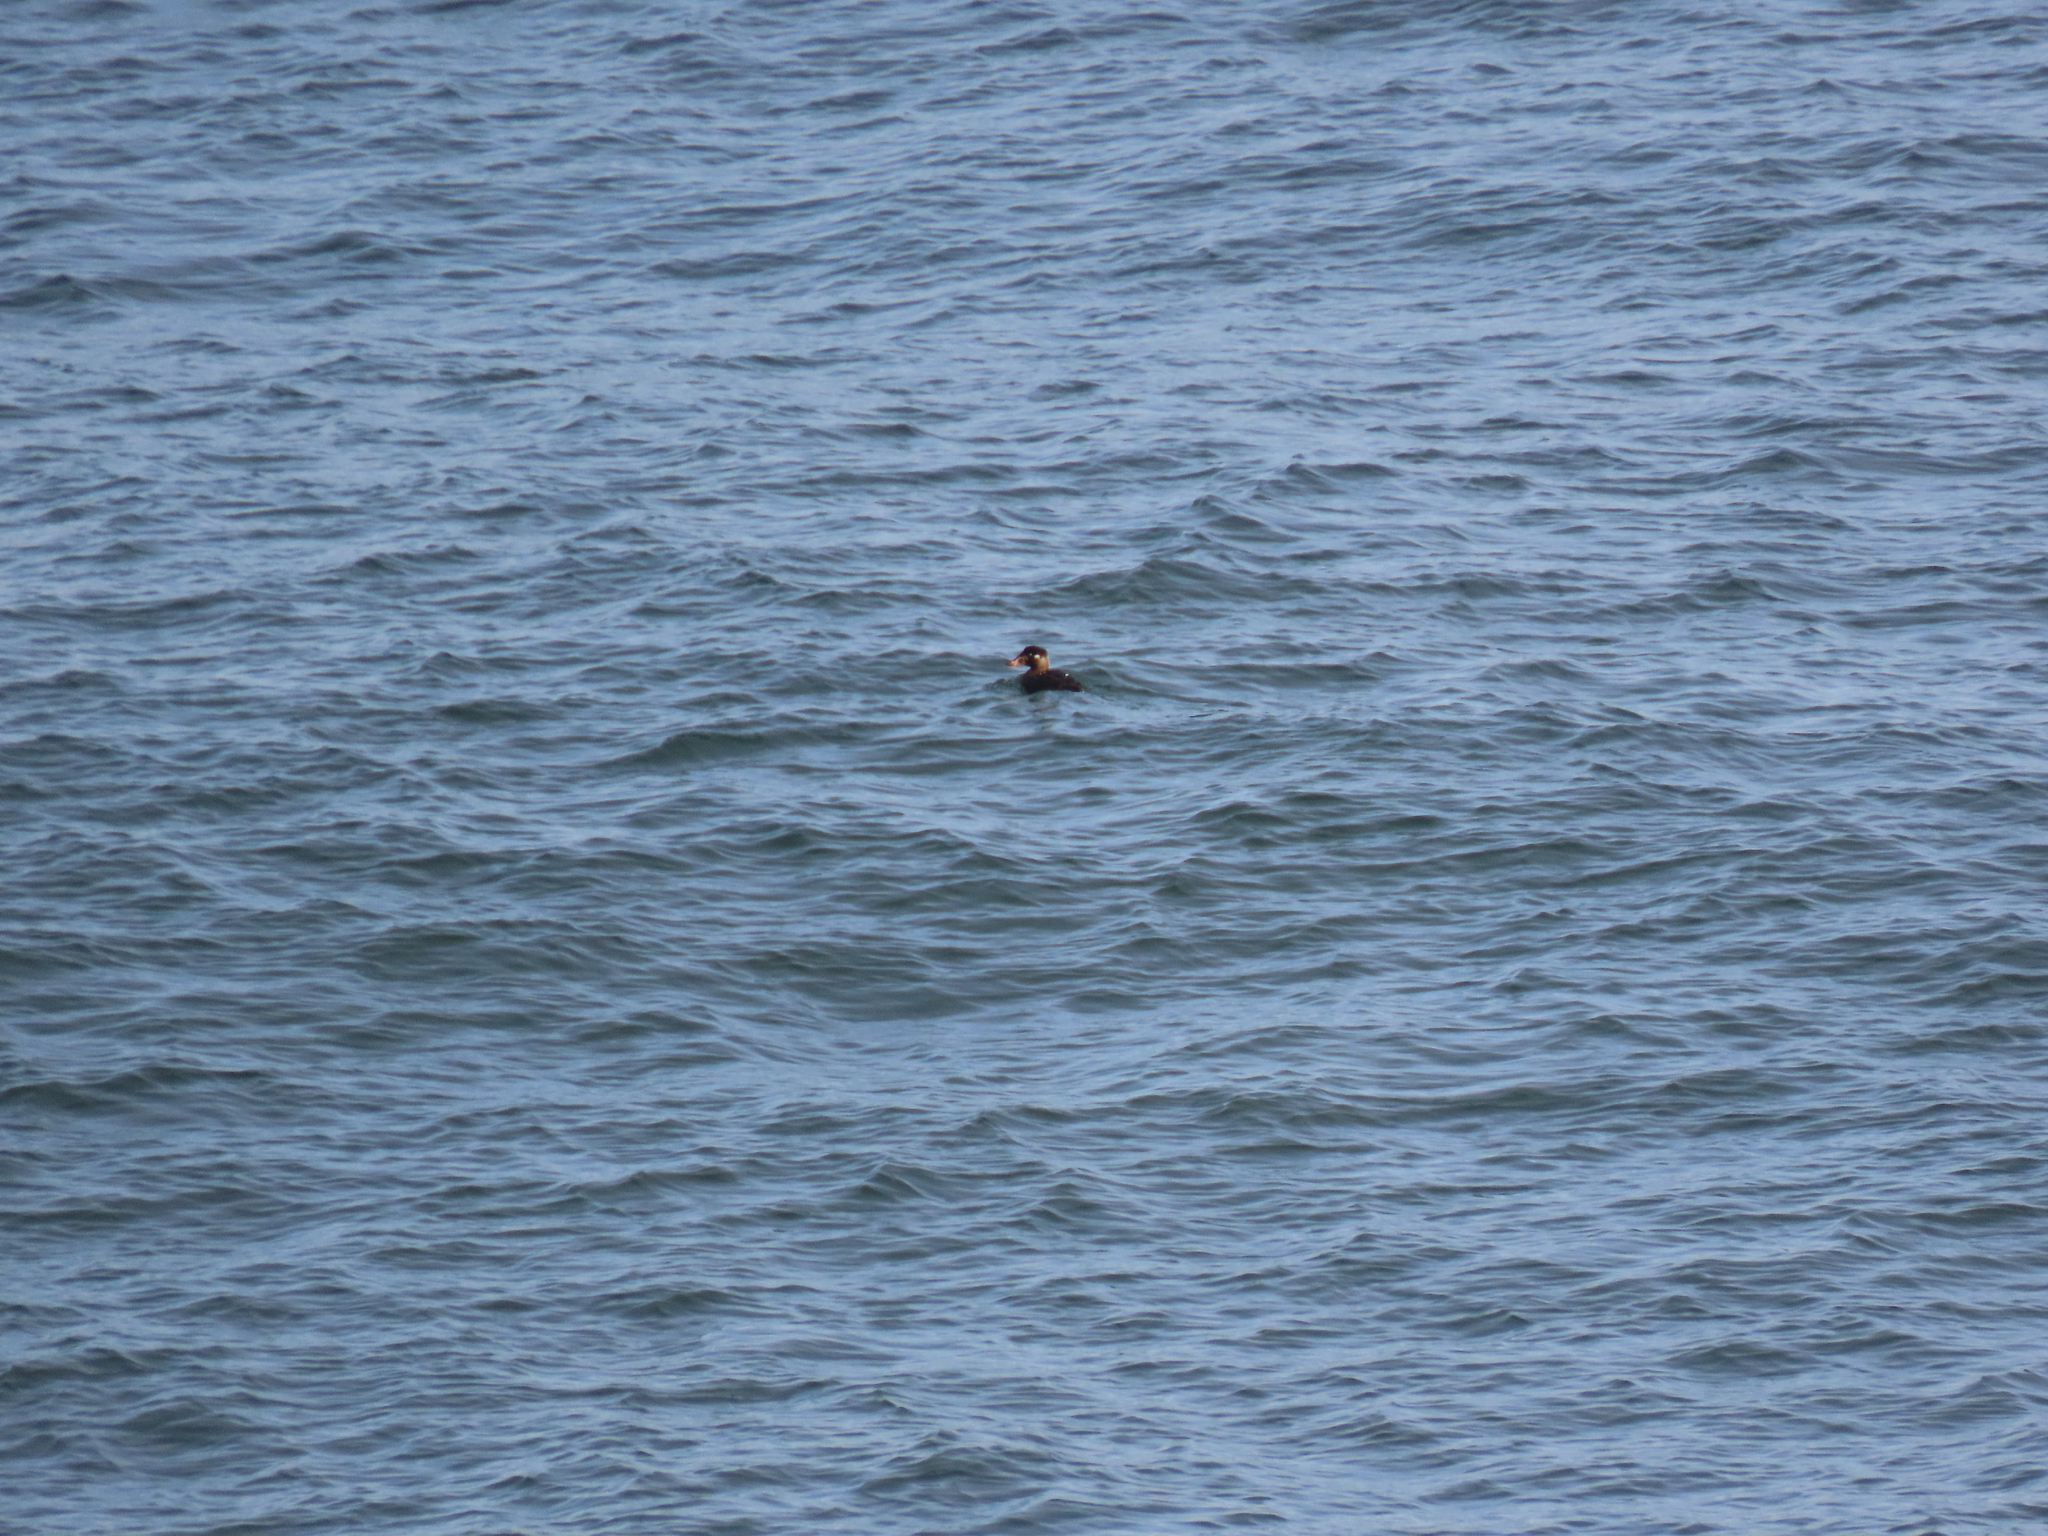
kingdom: Animalia
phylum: Chordata
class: Aves
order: Anseriformes
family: Anatidae
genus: Melanitta
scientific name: Melanitta perspicillata
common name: Surf scoter
